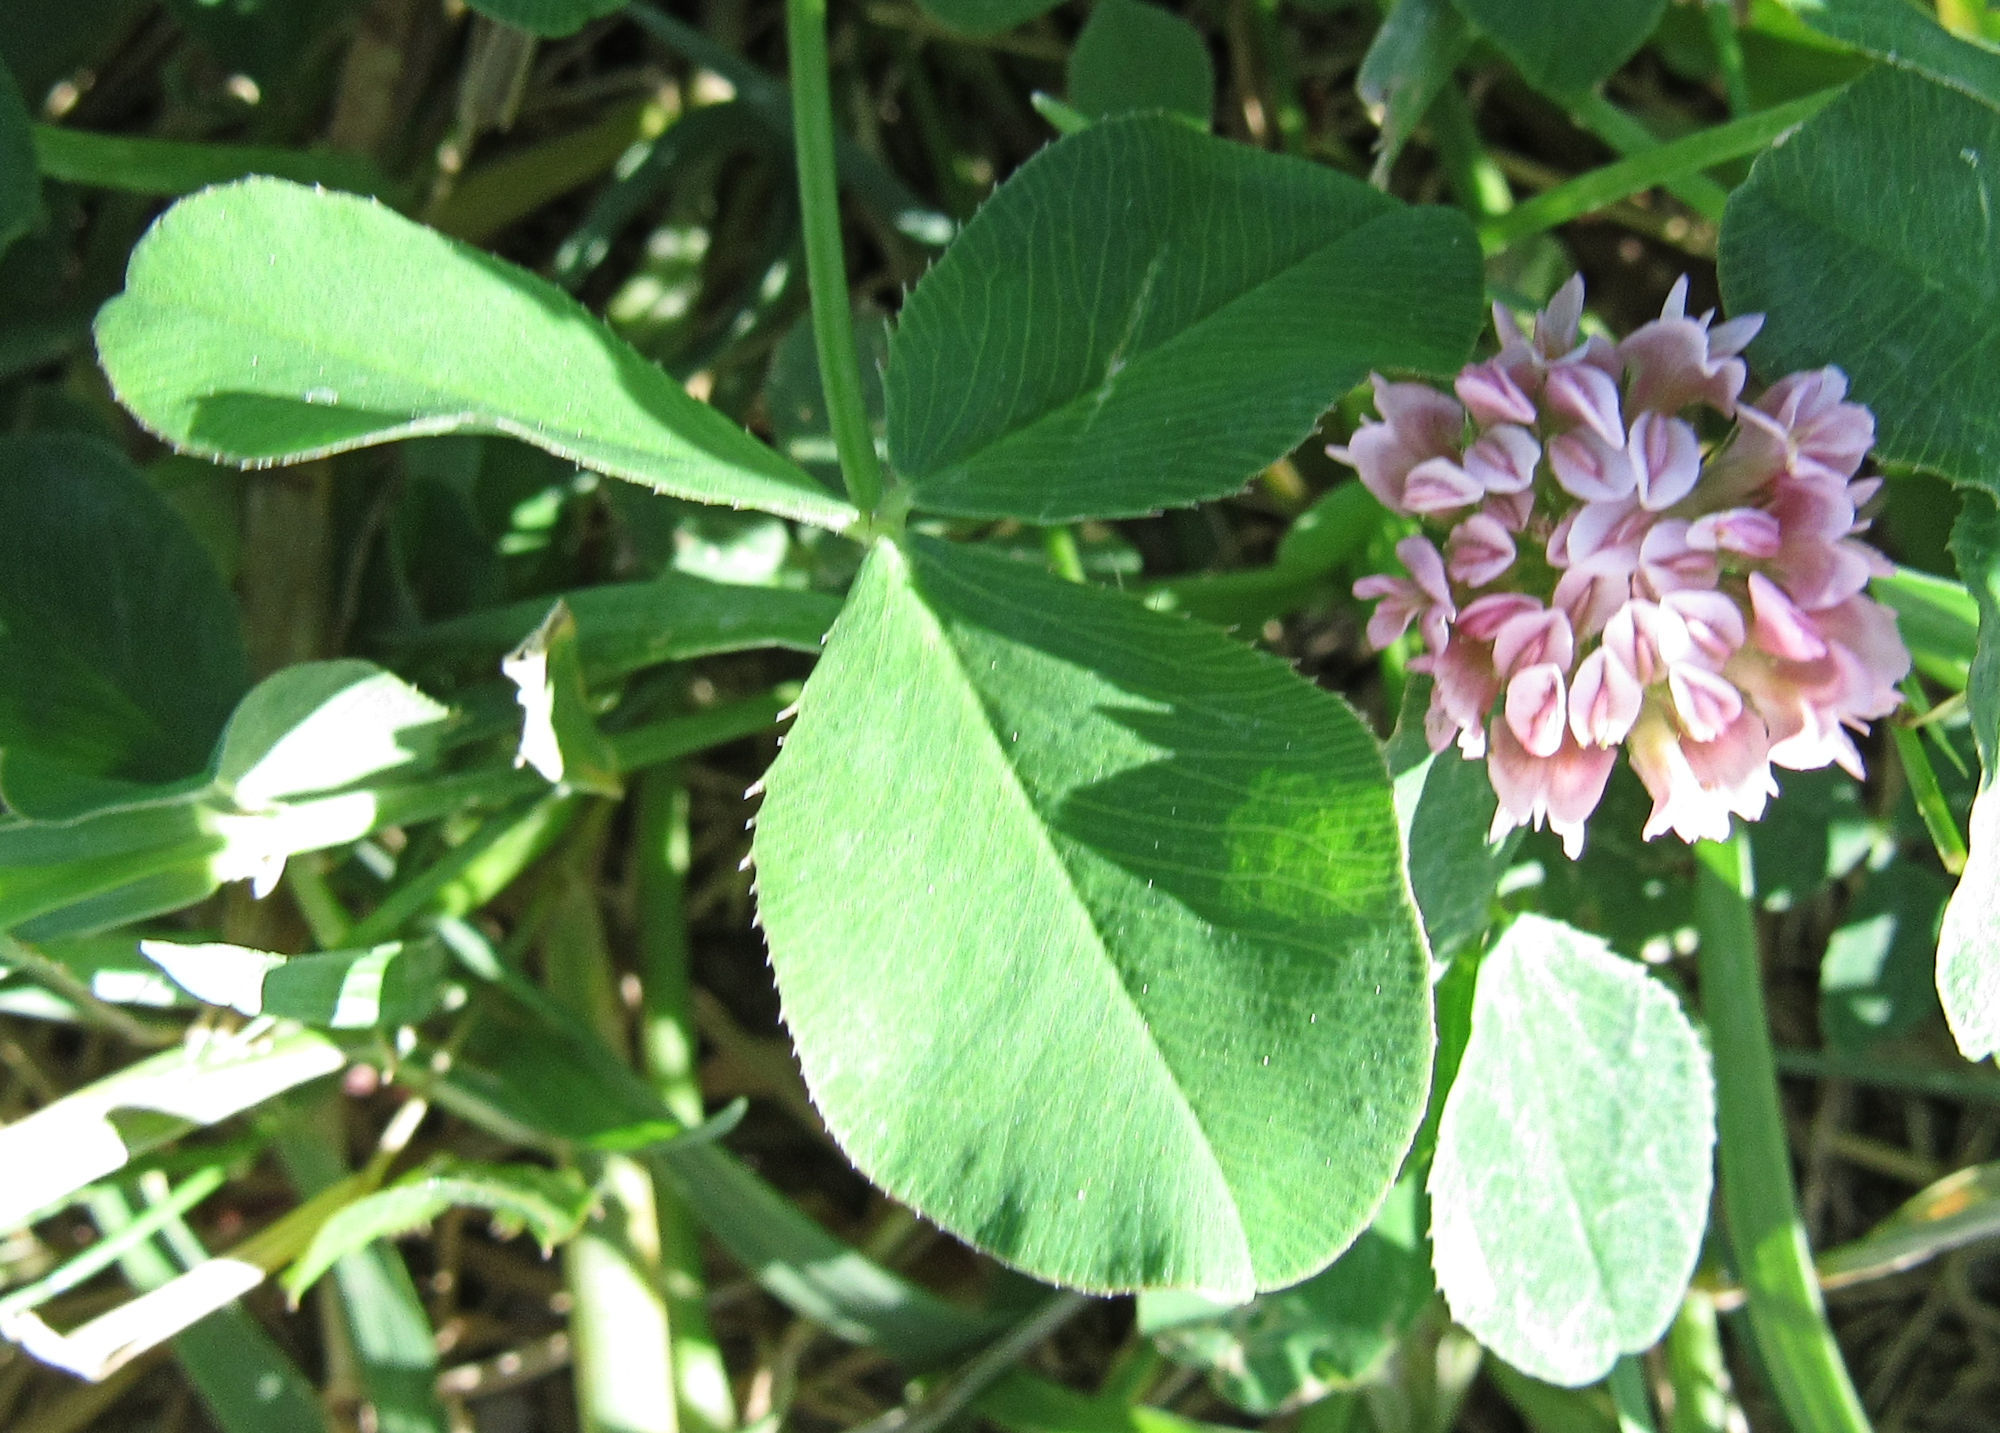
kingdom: Plantae
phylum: Tracheophyta
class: Magnoliopsida
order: Fabales
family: Fabaceae
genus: Trifolium
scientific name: Trifolium hybridum
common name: Alsike clover
